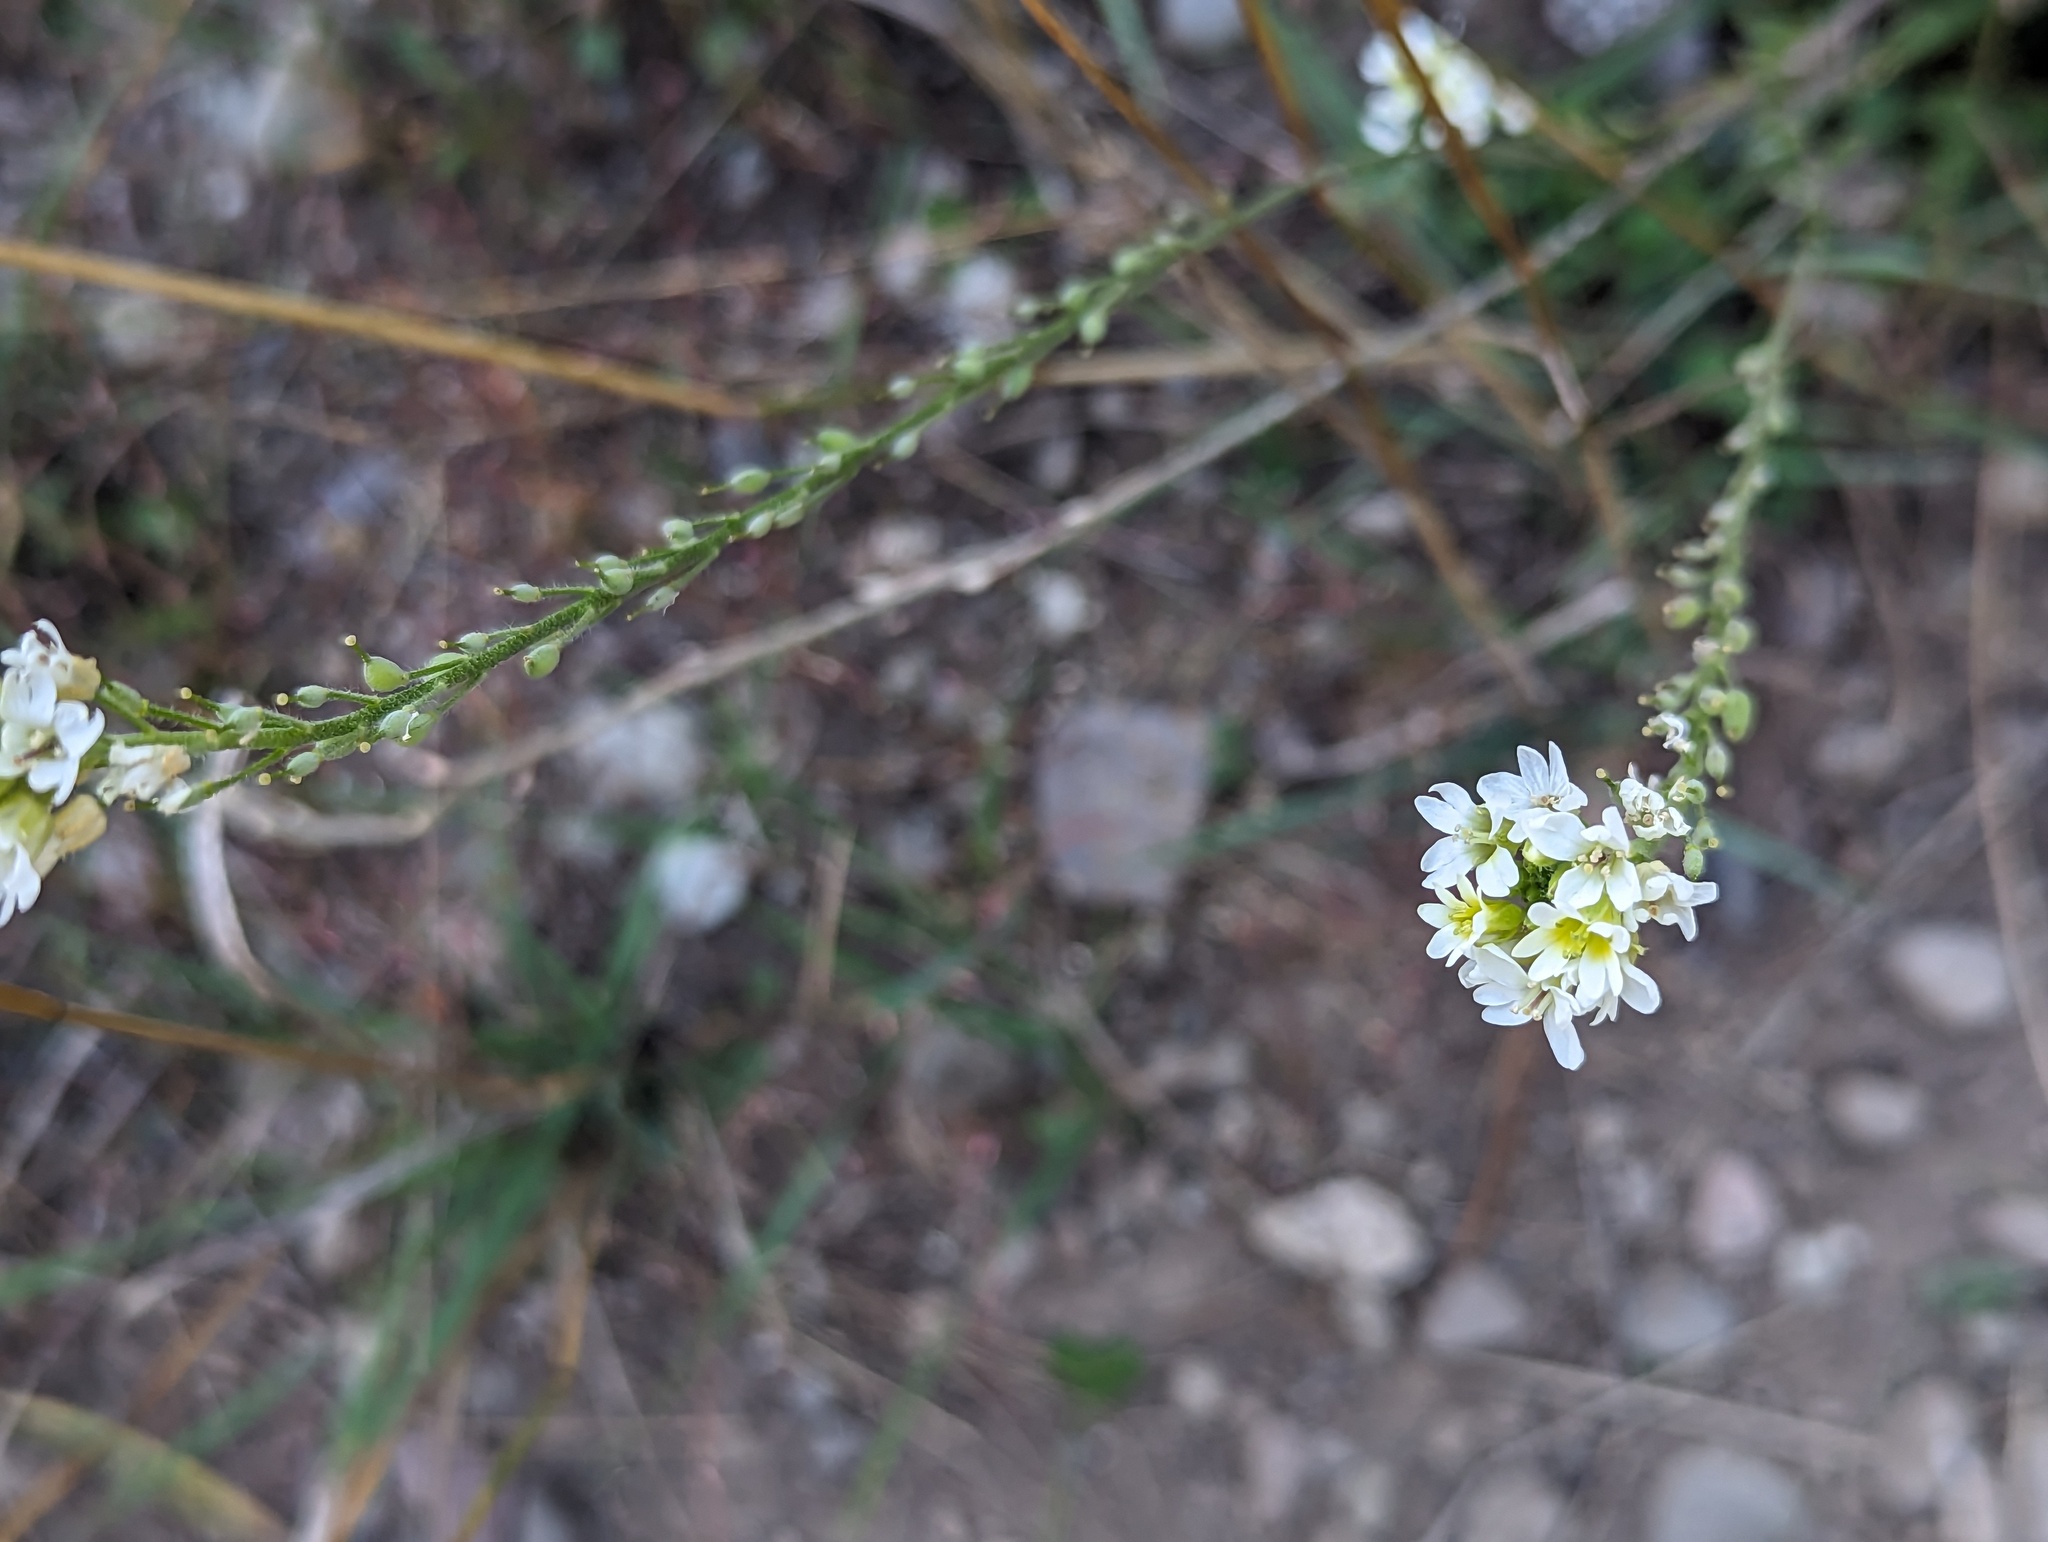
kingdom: Plantae
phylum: Tracheophyta
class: Magnoliopsida
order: Brassicales
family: Brassicaceae
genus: Berteroa
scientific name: Berteroa incana
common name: Hoary alison
